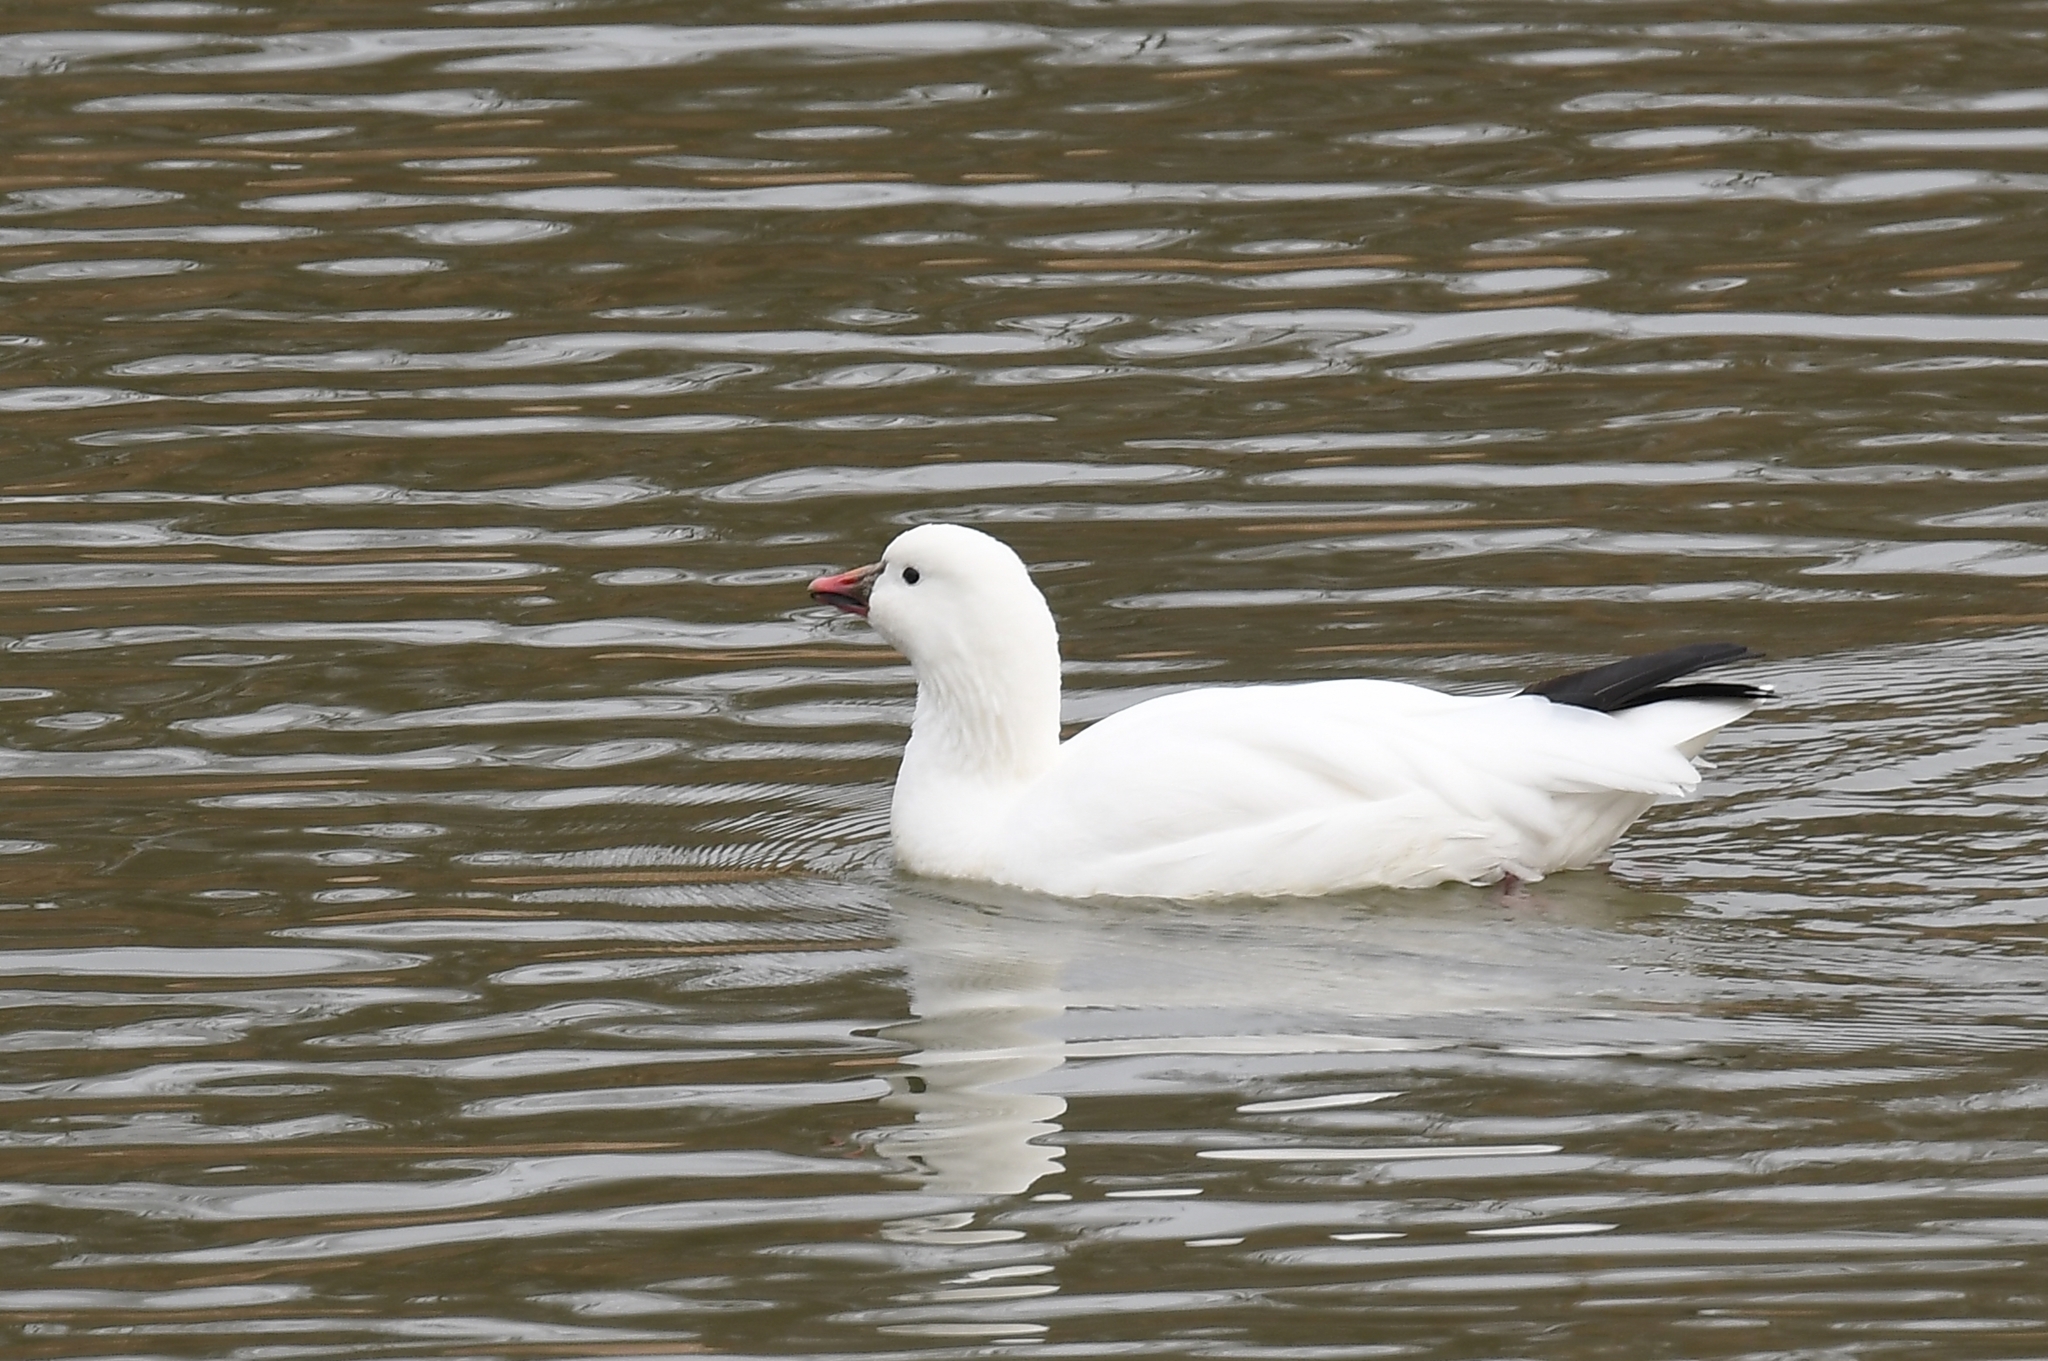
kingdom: Animalia
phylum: Chordata
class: Aves
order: Anseriformes
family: Anatidae
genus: Anser
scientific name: Anser rossii
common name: Ross's goose
